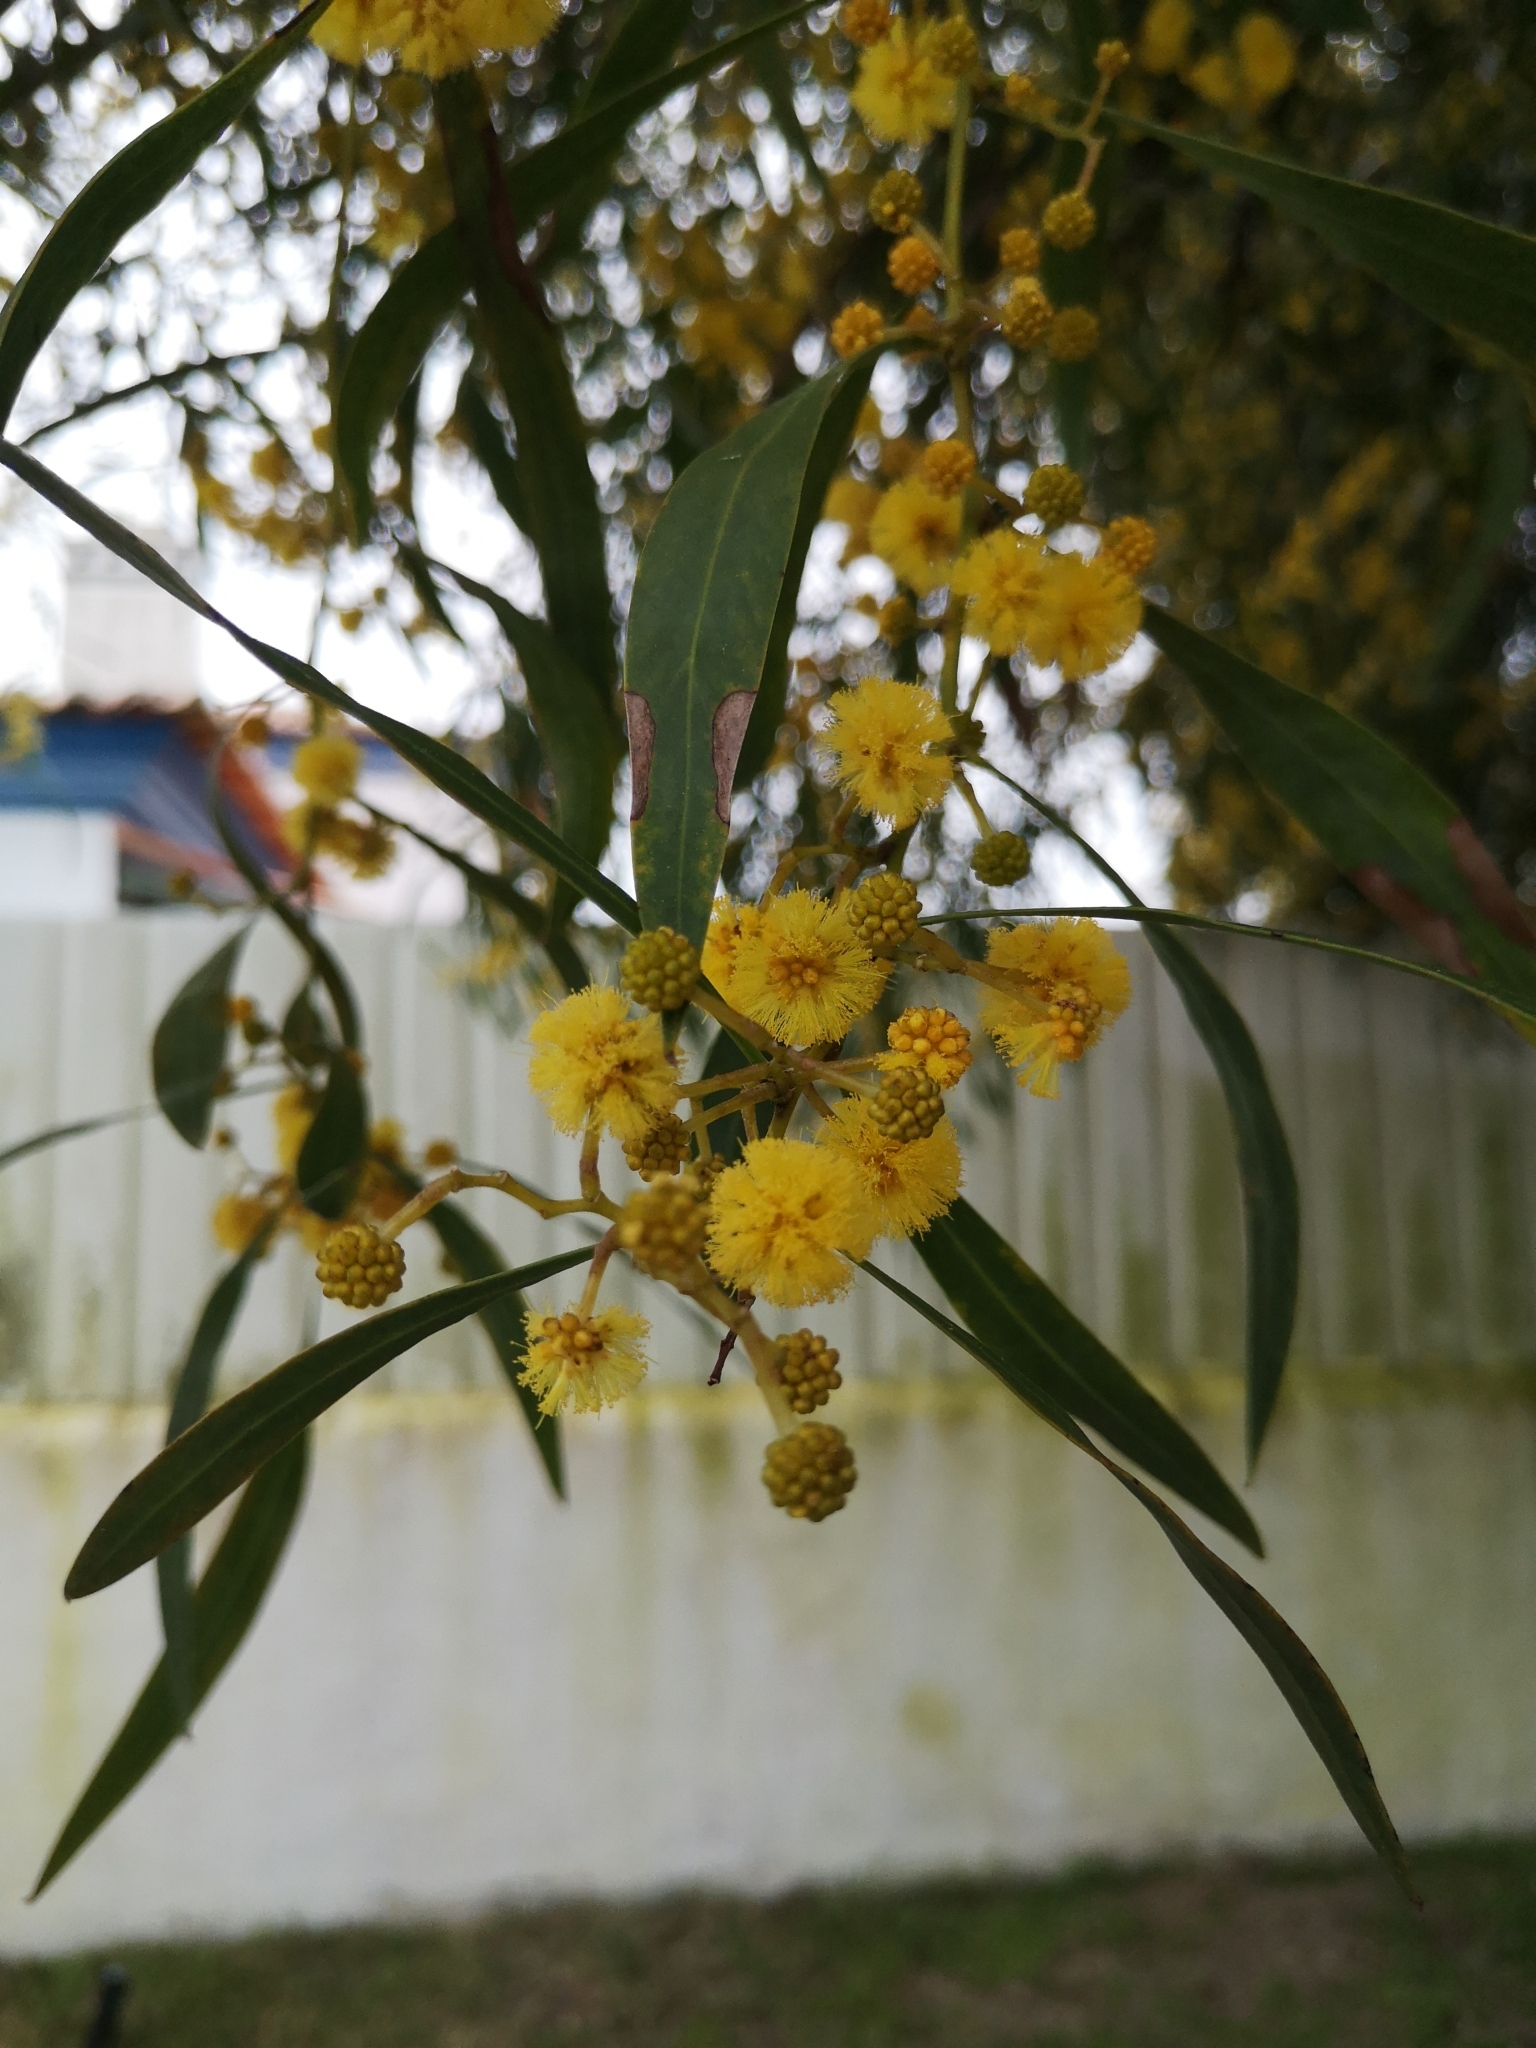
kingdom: Plantae
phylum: Tracheophyta
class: Magnoliopsida
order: Fabales
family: Fabaceae
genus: Acacia
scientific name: Acacia saligna
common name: Orange wattle
